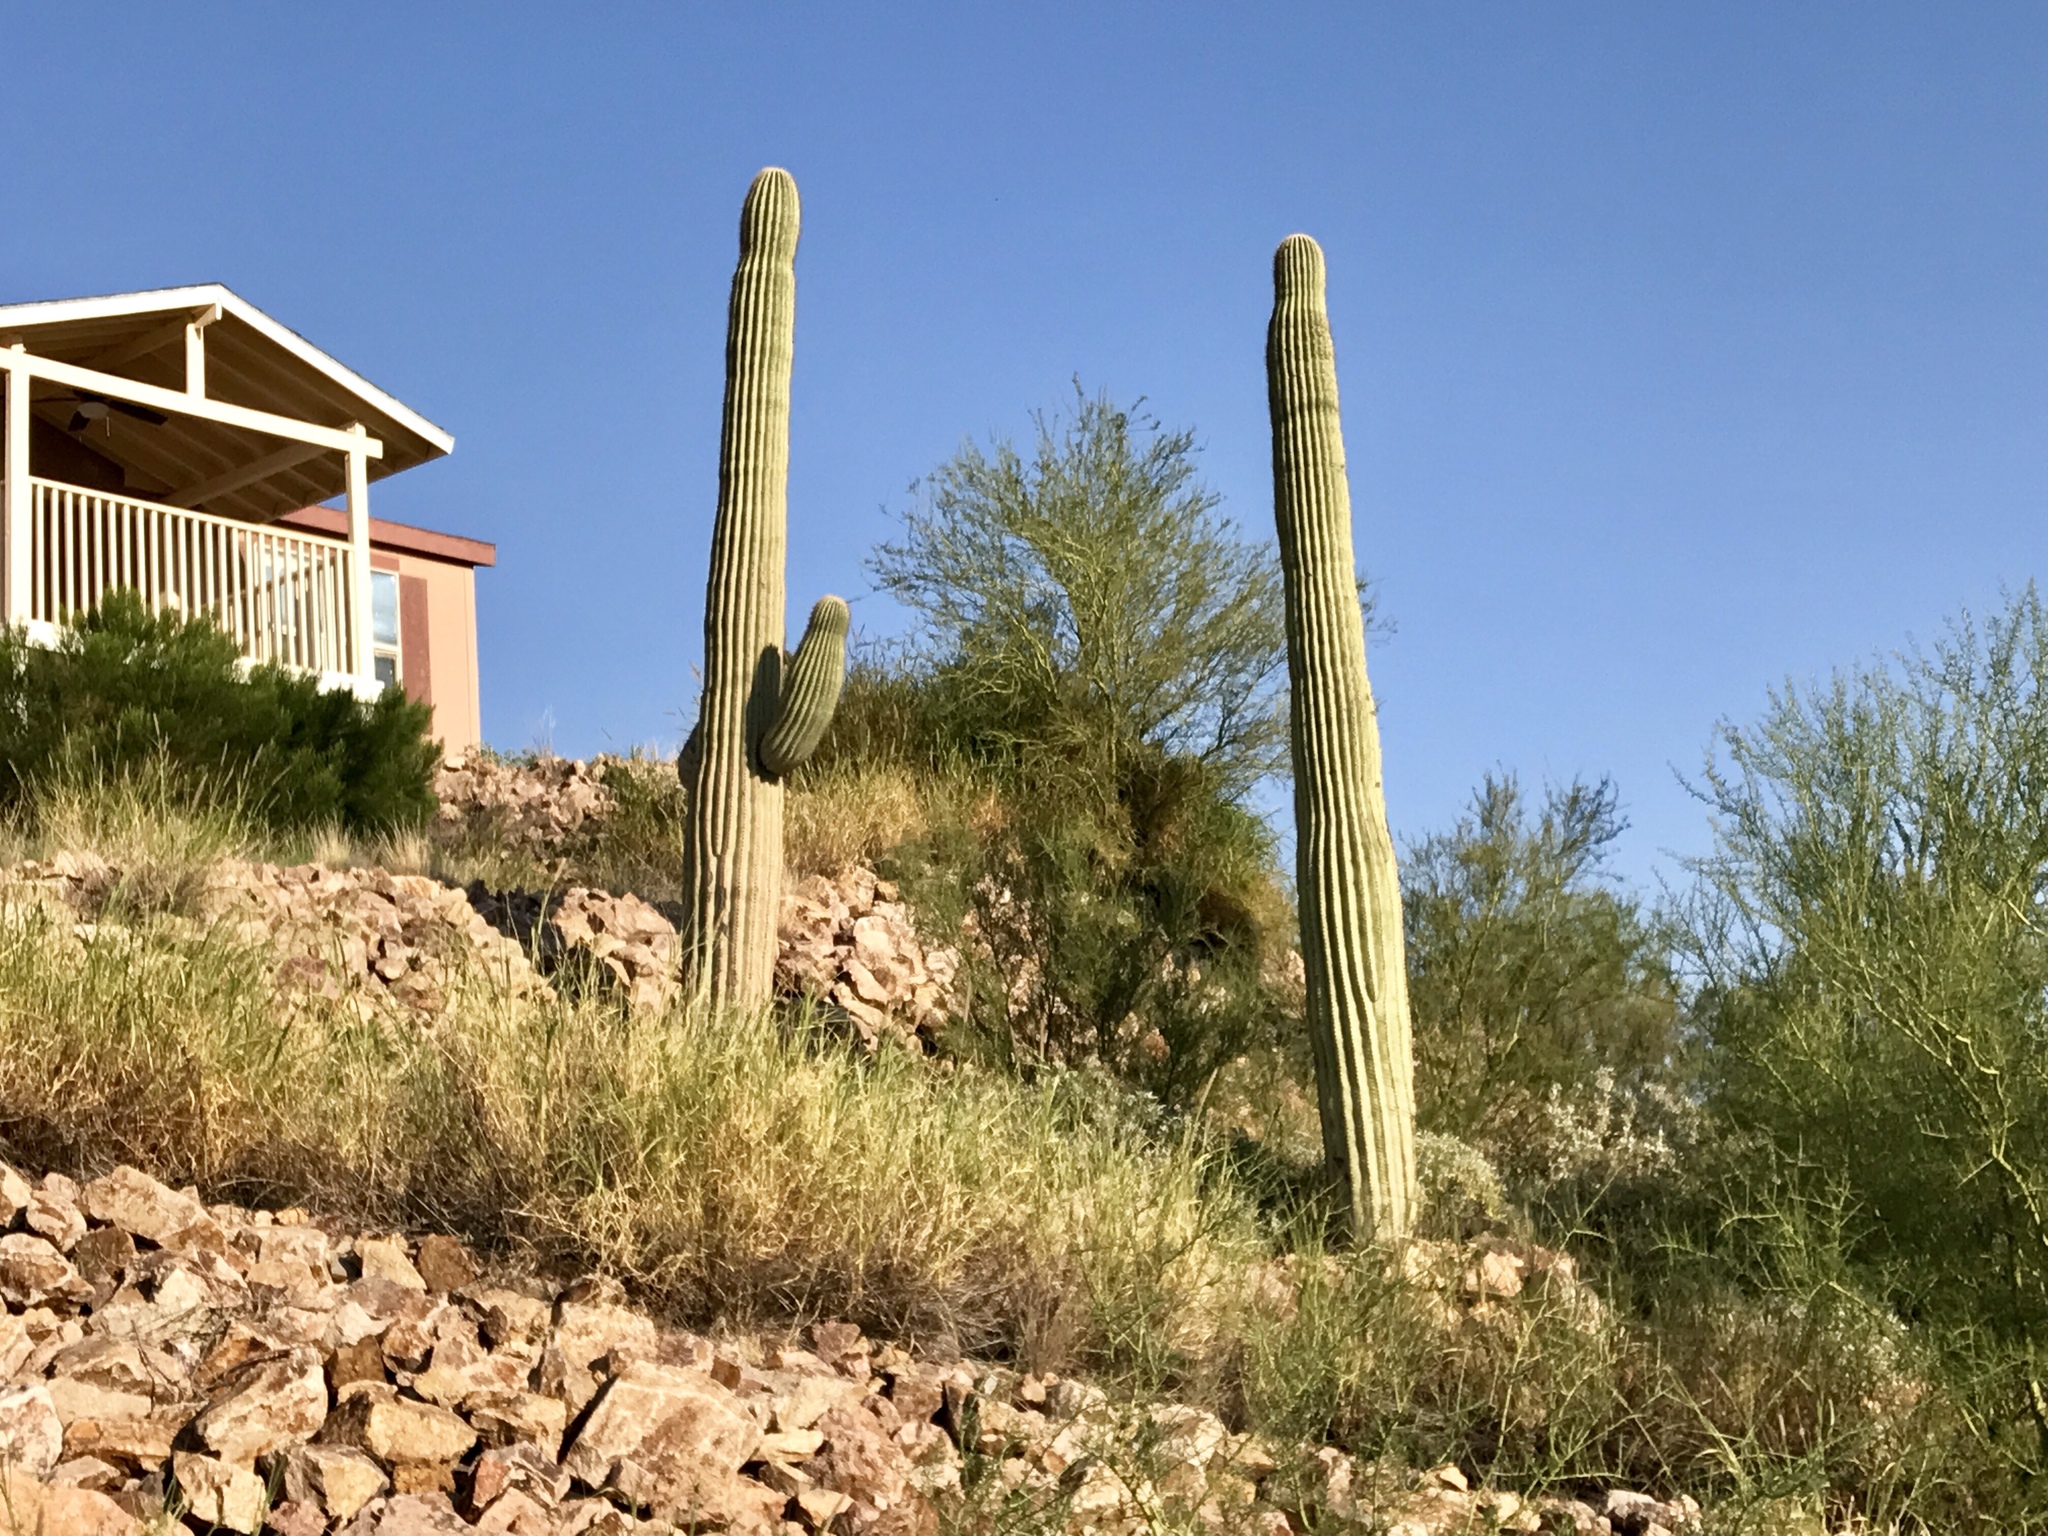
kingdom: Plantae
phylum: Tracheophyta
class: Magnoliopsida
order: Caryophyllales
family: Cactaceae
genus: Carnegiea
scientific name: Carnegiea gigantea
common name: Saguaro
